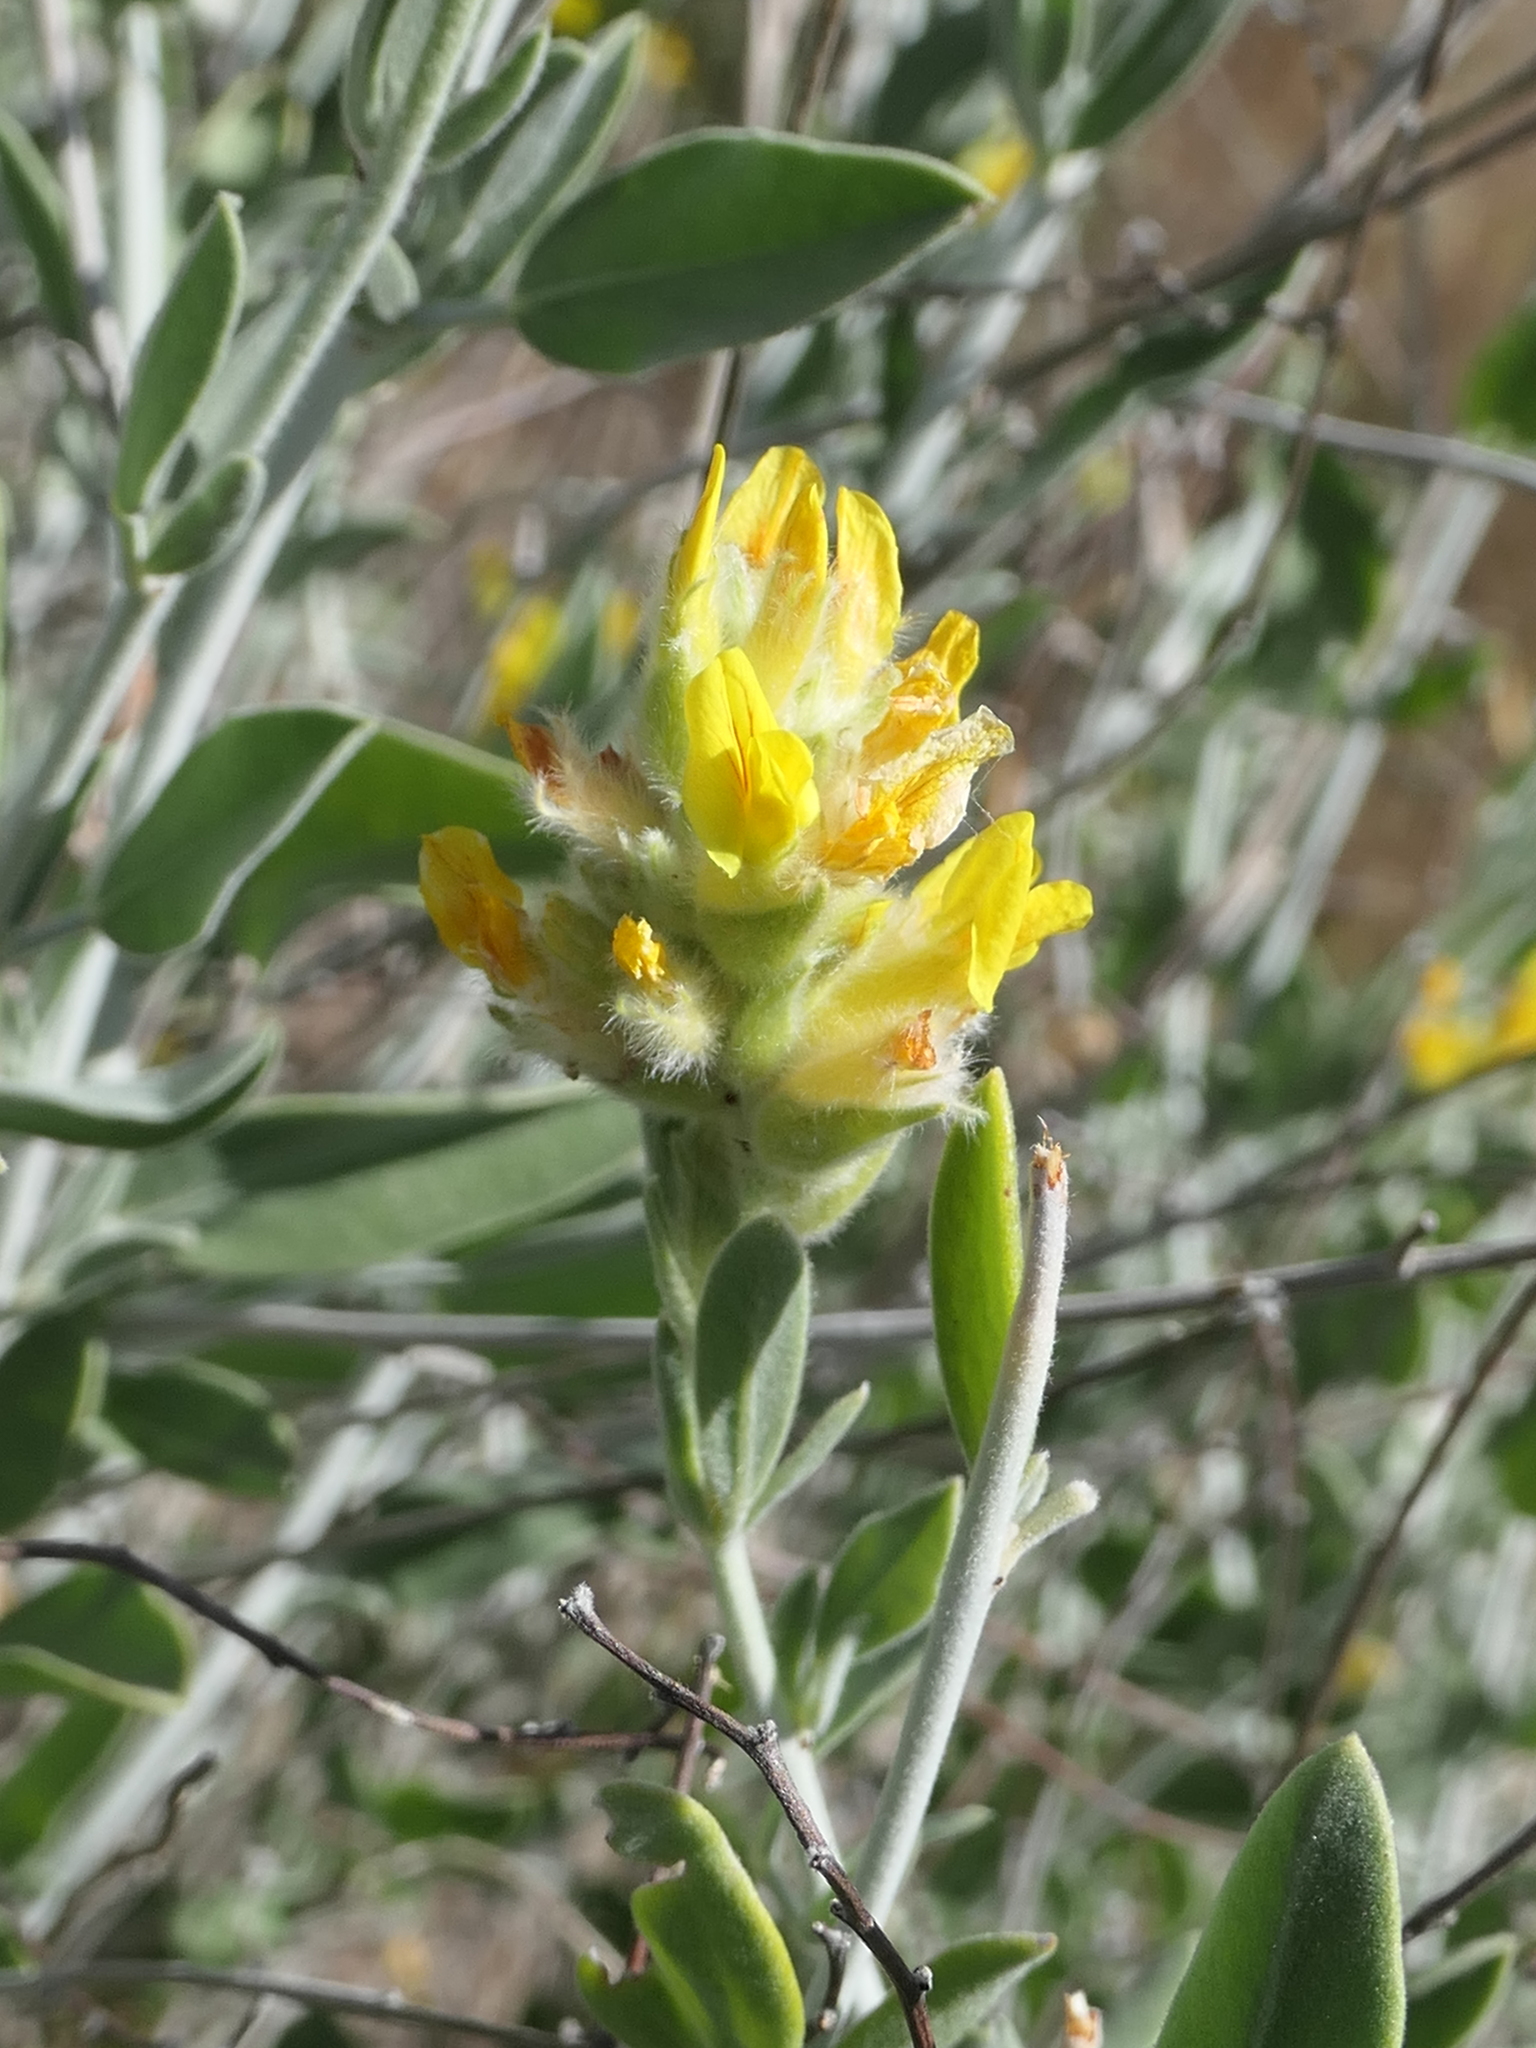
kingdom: Plantae
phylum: Tracheophyta
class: Magnoliopsida
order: Fabales
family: Fabaceae
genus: Anthyllis
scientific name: Anthyllis cytisoides
